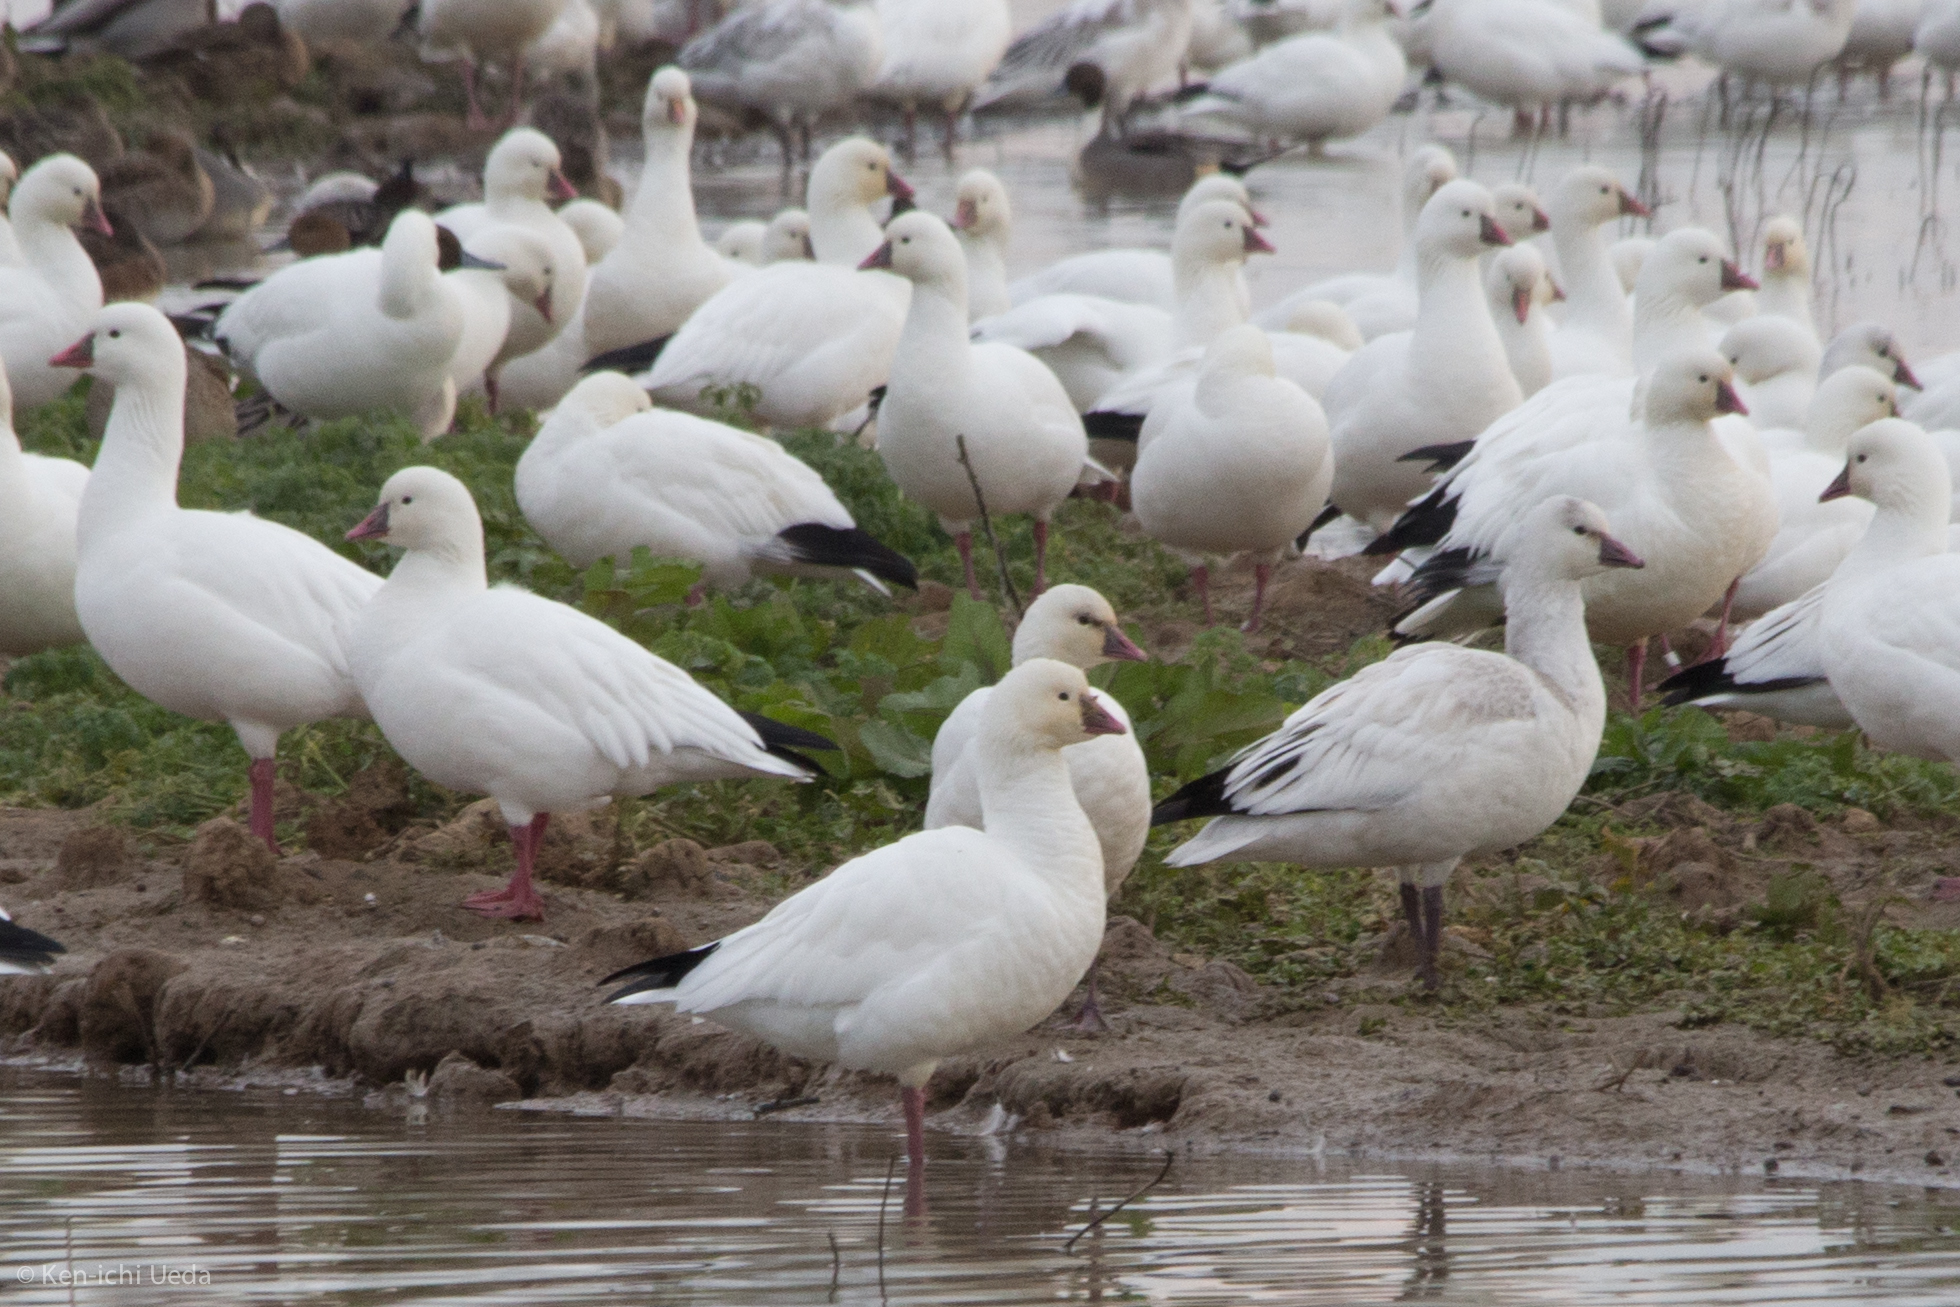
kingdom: Animalia
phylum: Chordata
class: Aves
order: Anseriformes
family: Anatidae
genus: Anser
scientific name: Anser rossii
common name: Ross's goose
